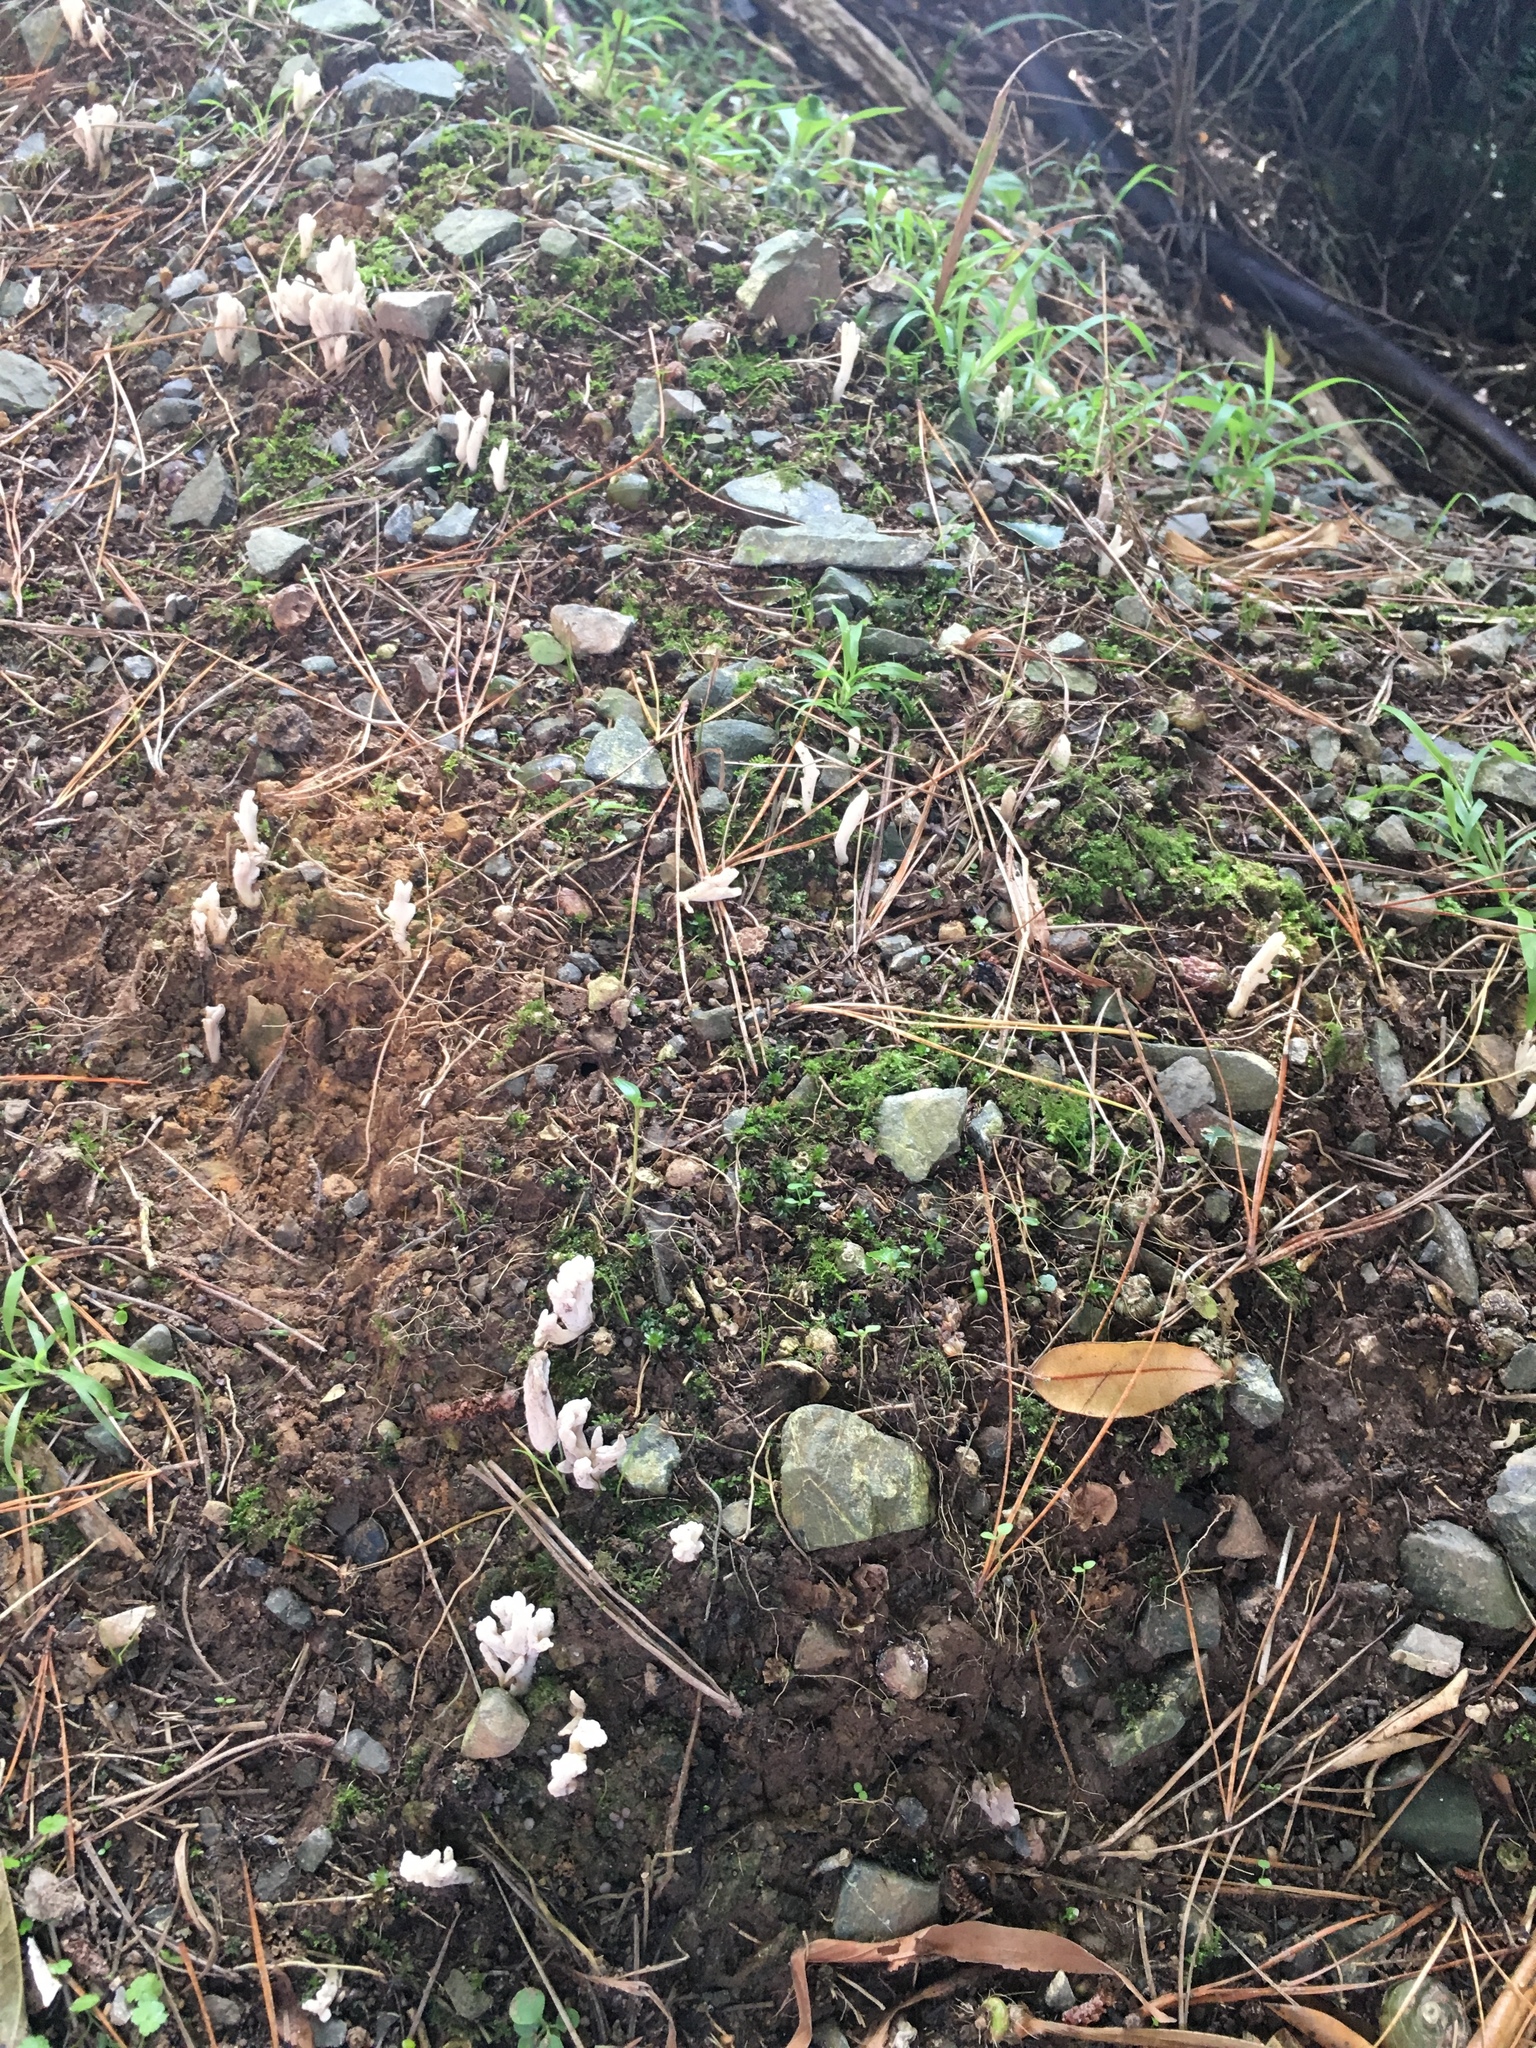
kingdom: Fungi
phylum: Basidiomycota
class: Agaricomycetes
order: Cantharellales
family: Hydnaceae
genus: Clavulina
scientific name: Clavulina rugosa
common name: Wrinkled club
